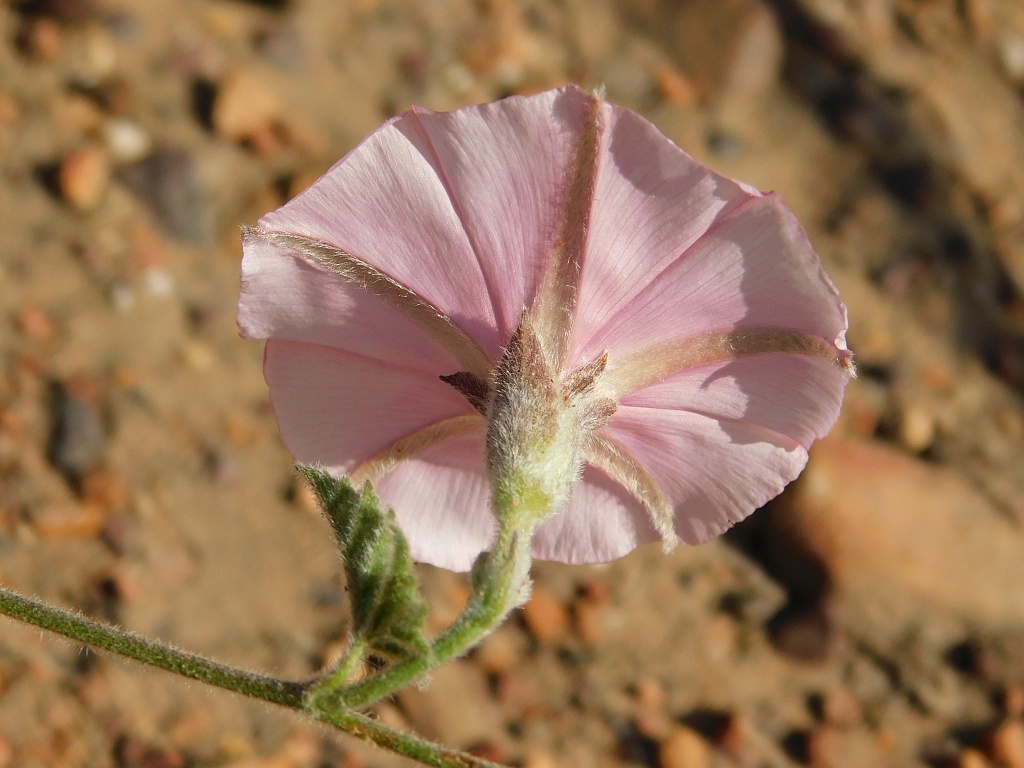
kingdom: Plantae
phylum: Tracheophyta
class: Magnoliopsida
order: Solanales
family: Convolvulaceae
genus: Convolvulus
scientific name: Convolvulus capensis
